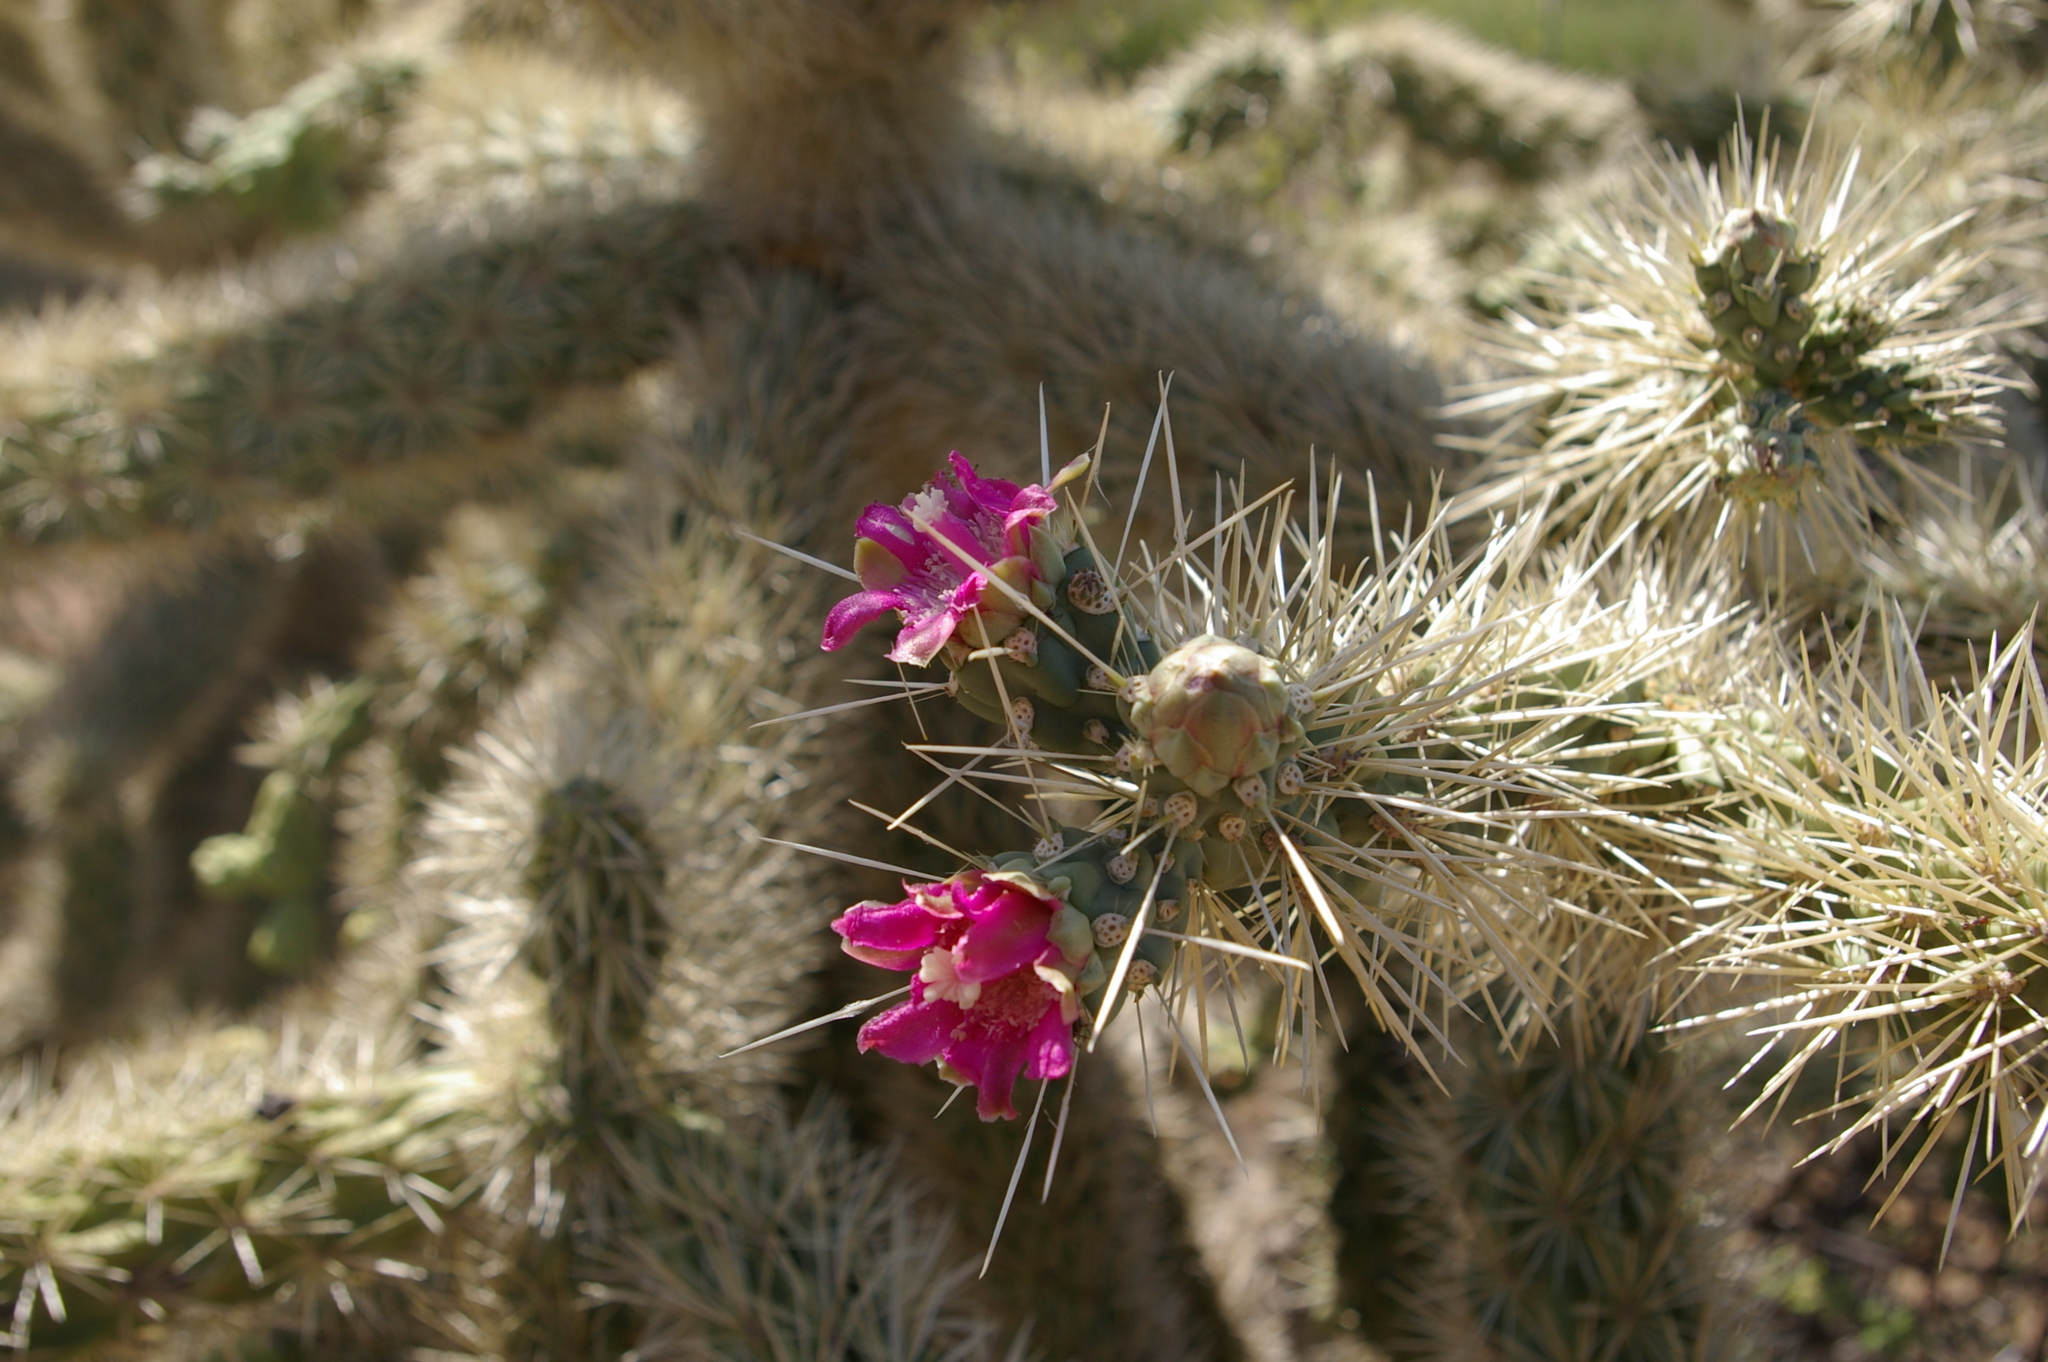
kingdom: Plantae
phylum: Tracheophyta
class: Magnoliopsida
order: Caryophyllales
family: Cactaceae
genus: Cylindropuntia
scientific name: Cylindropuntia fulgida
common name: Jumping cholla
